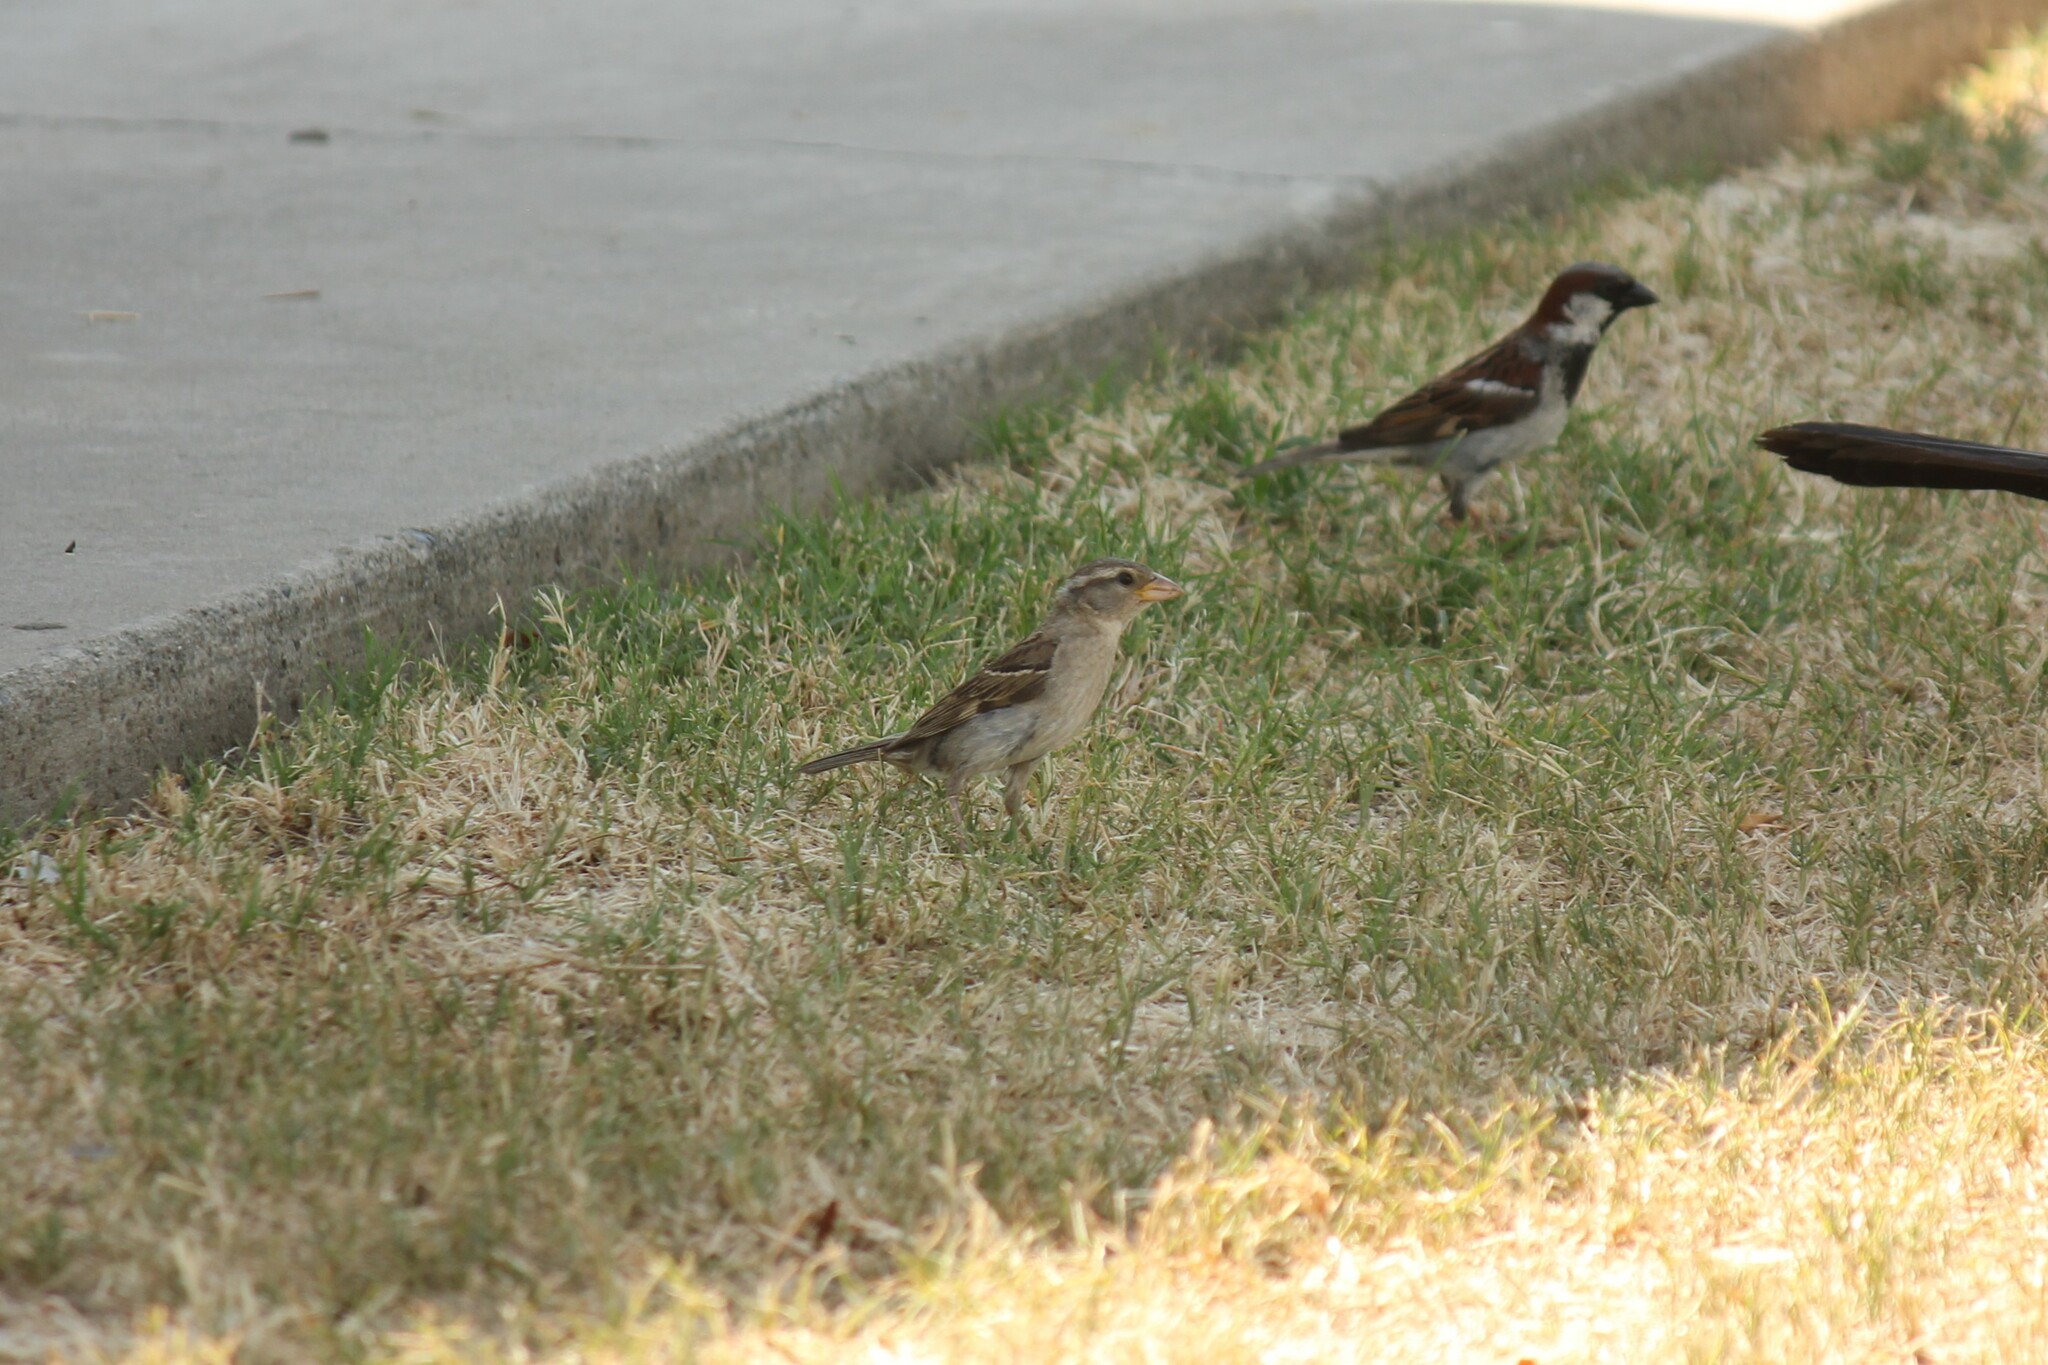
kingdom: Animalia
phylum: Chordata
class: Aves
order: Passeriformes
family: Passeridae
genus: Passer
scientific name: Passer domesticus
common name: House sparrow
